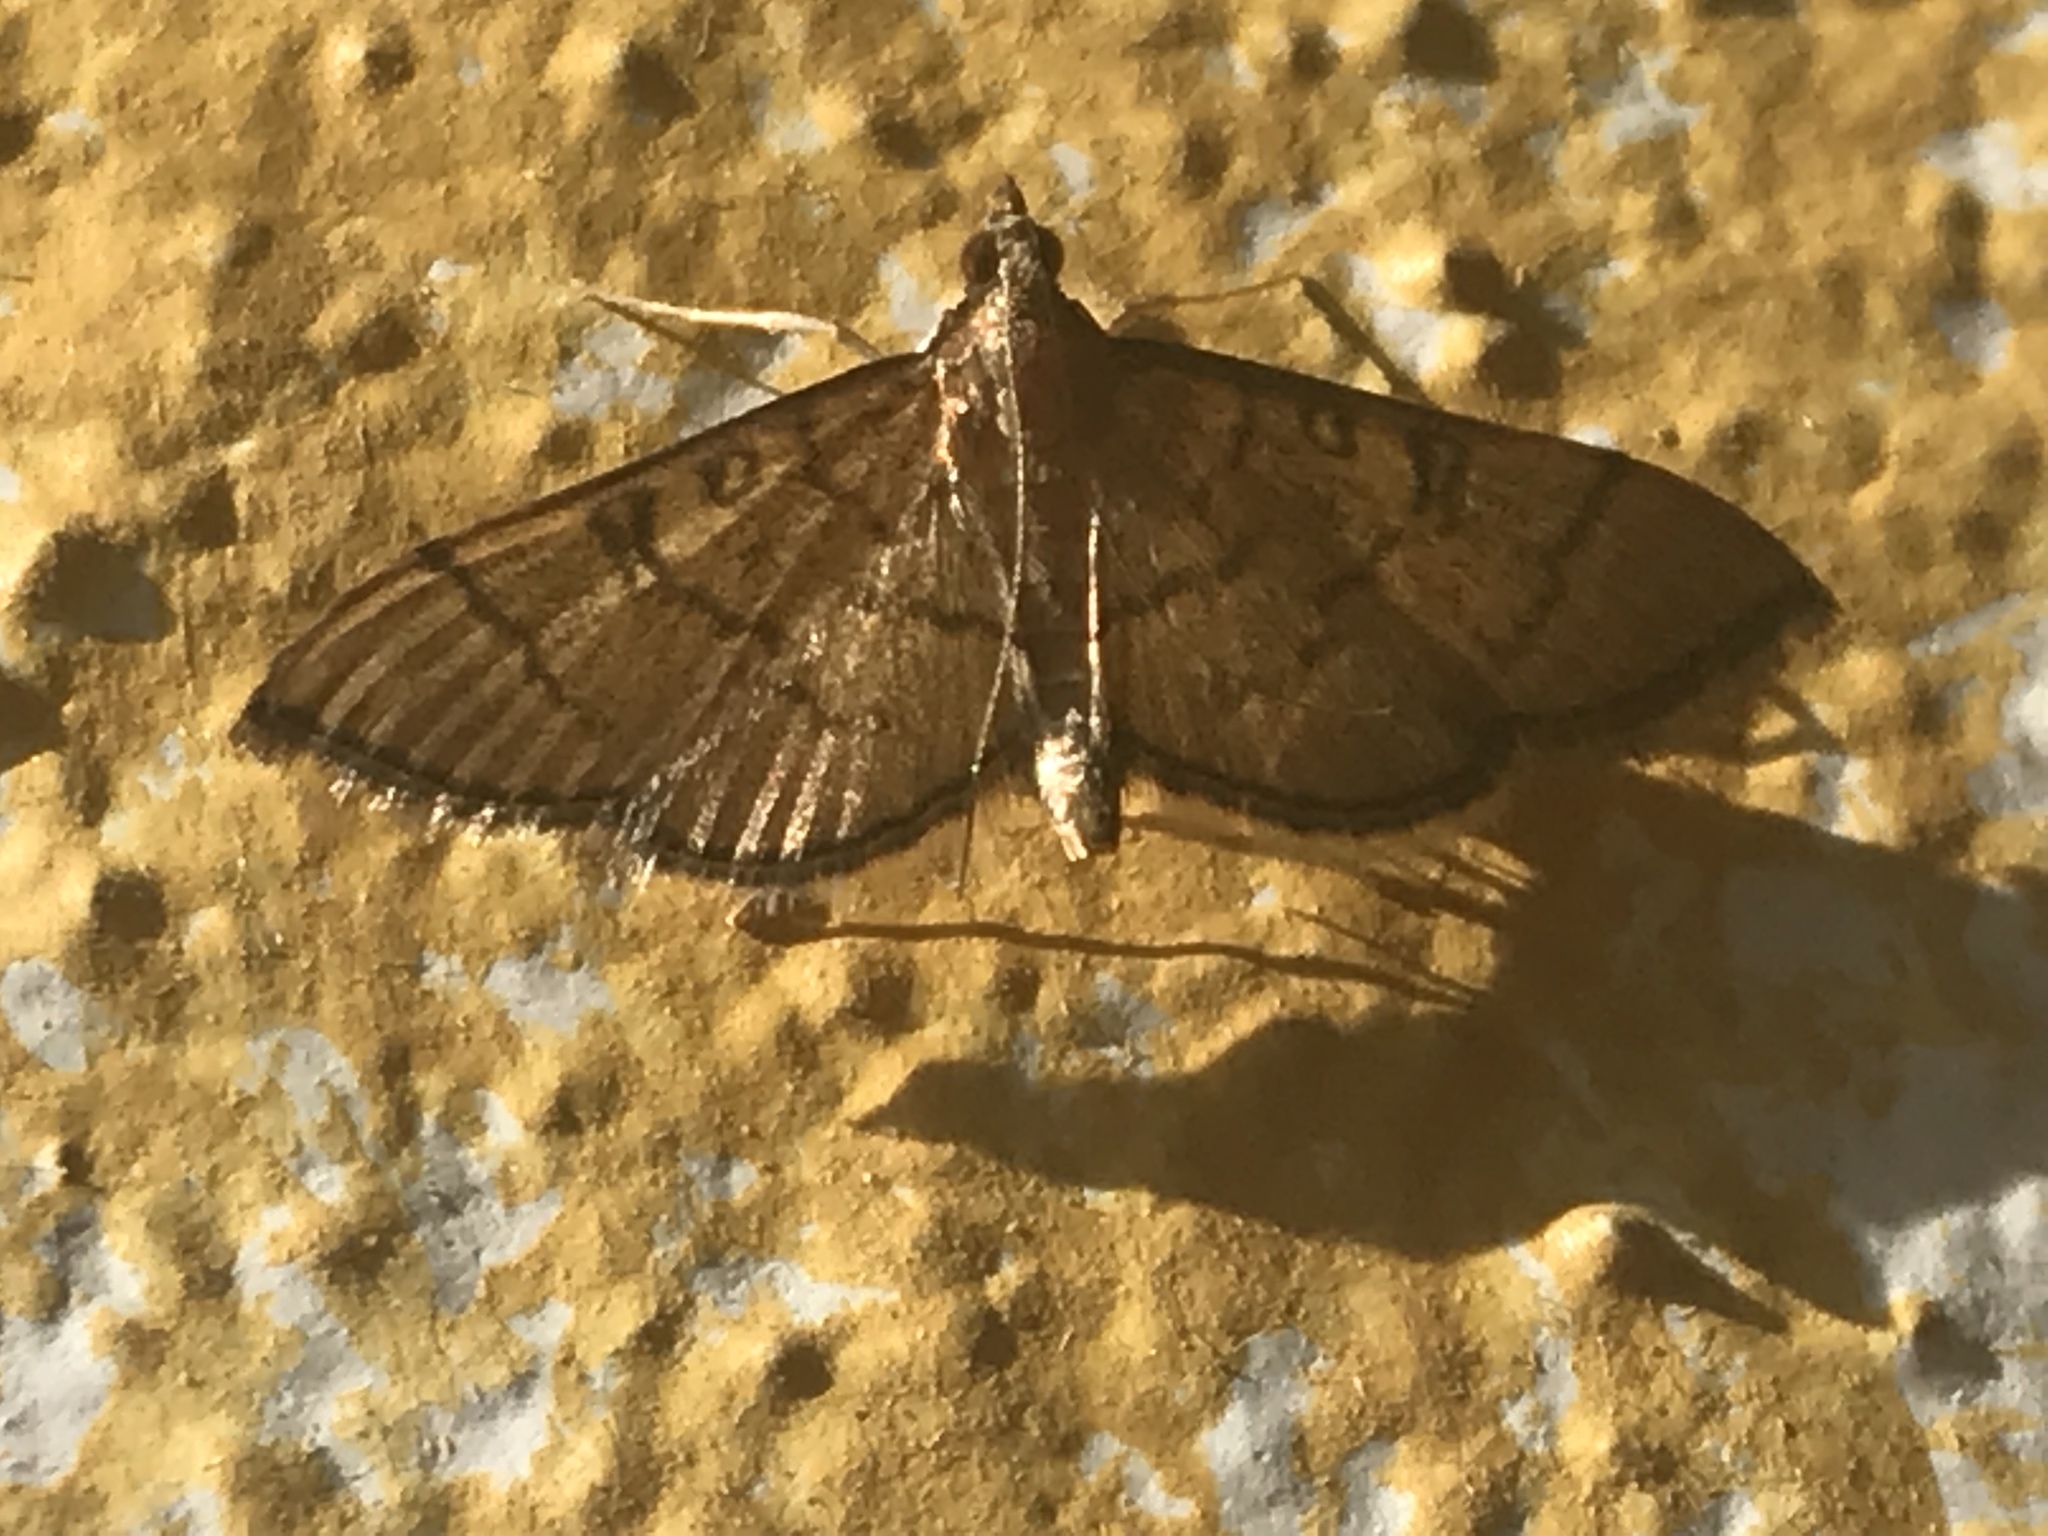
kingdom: Animalia
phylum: Arthropoda
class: Insecta
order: Lepidoptera
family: Crambidae
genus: Lamprosema
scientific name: Lamprosema Blepharomastix ranalis
